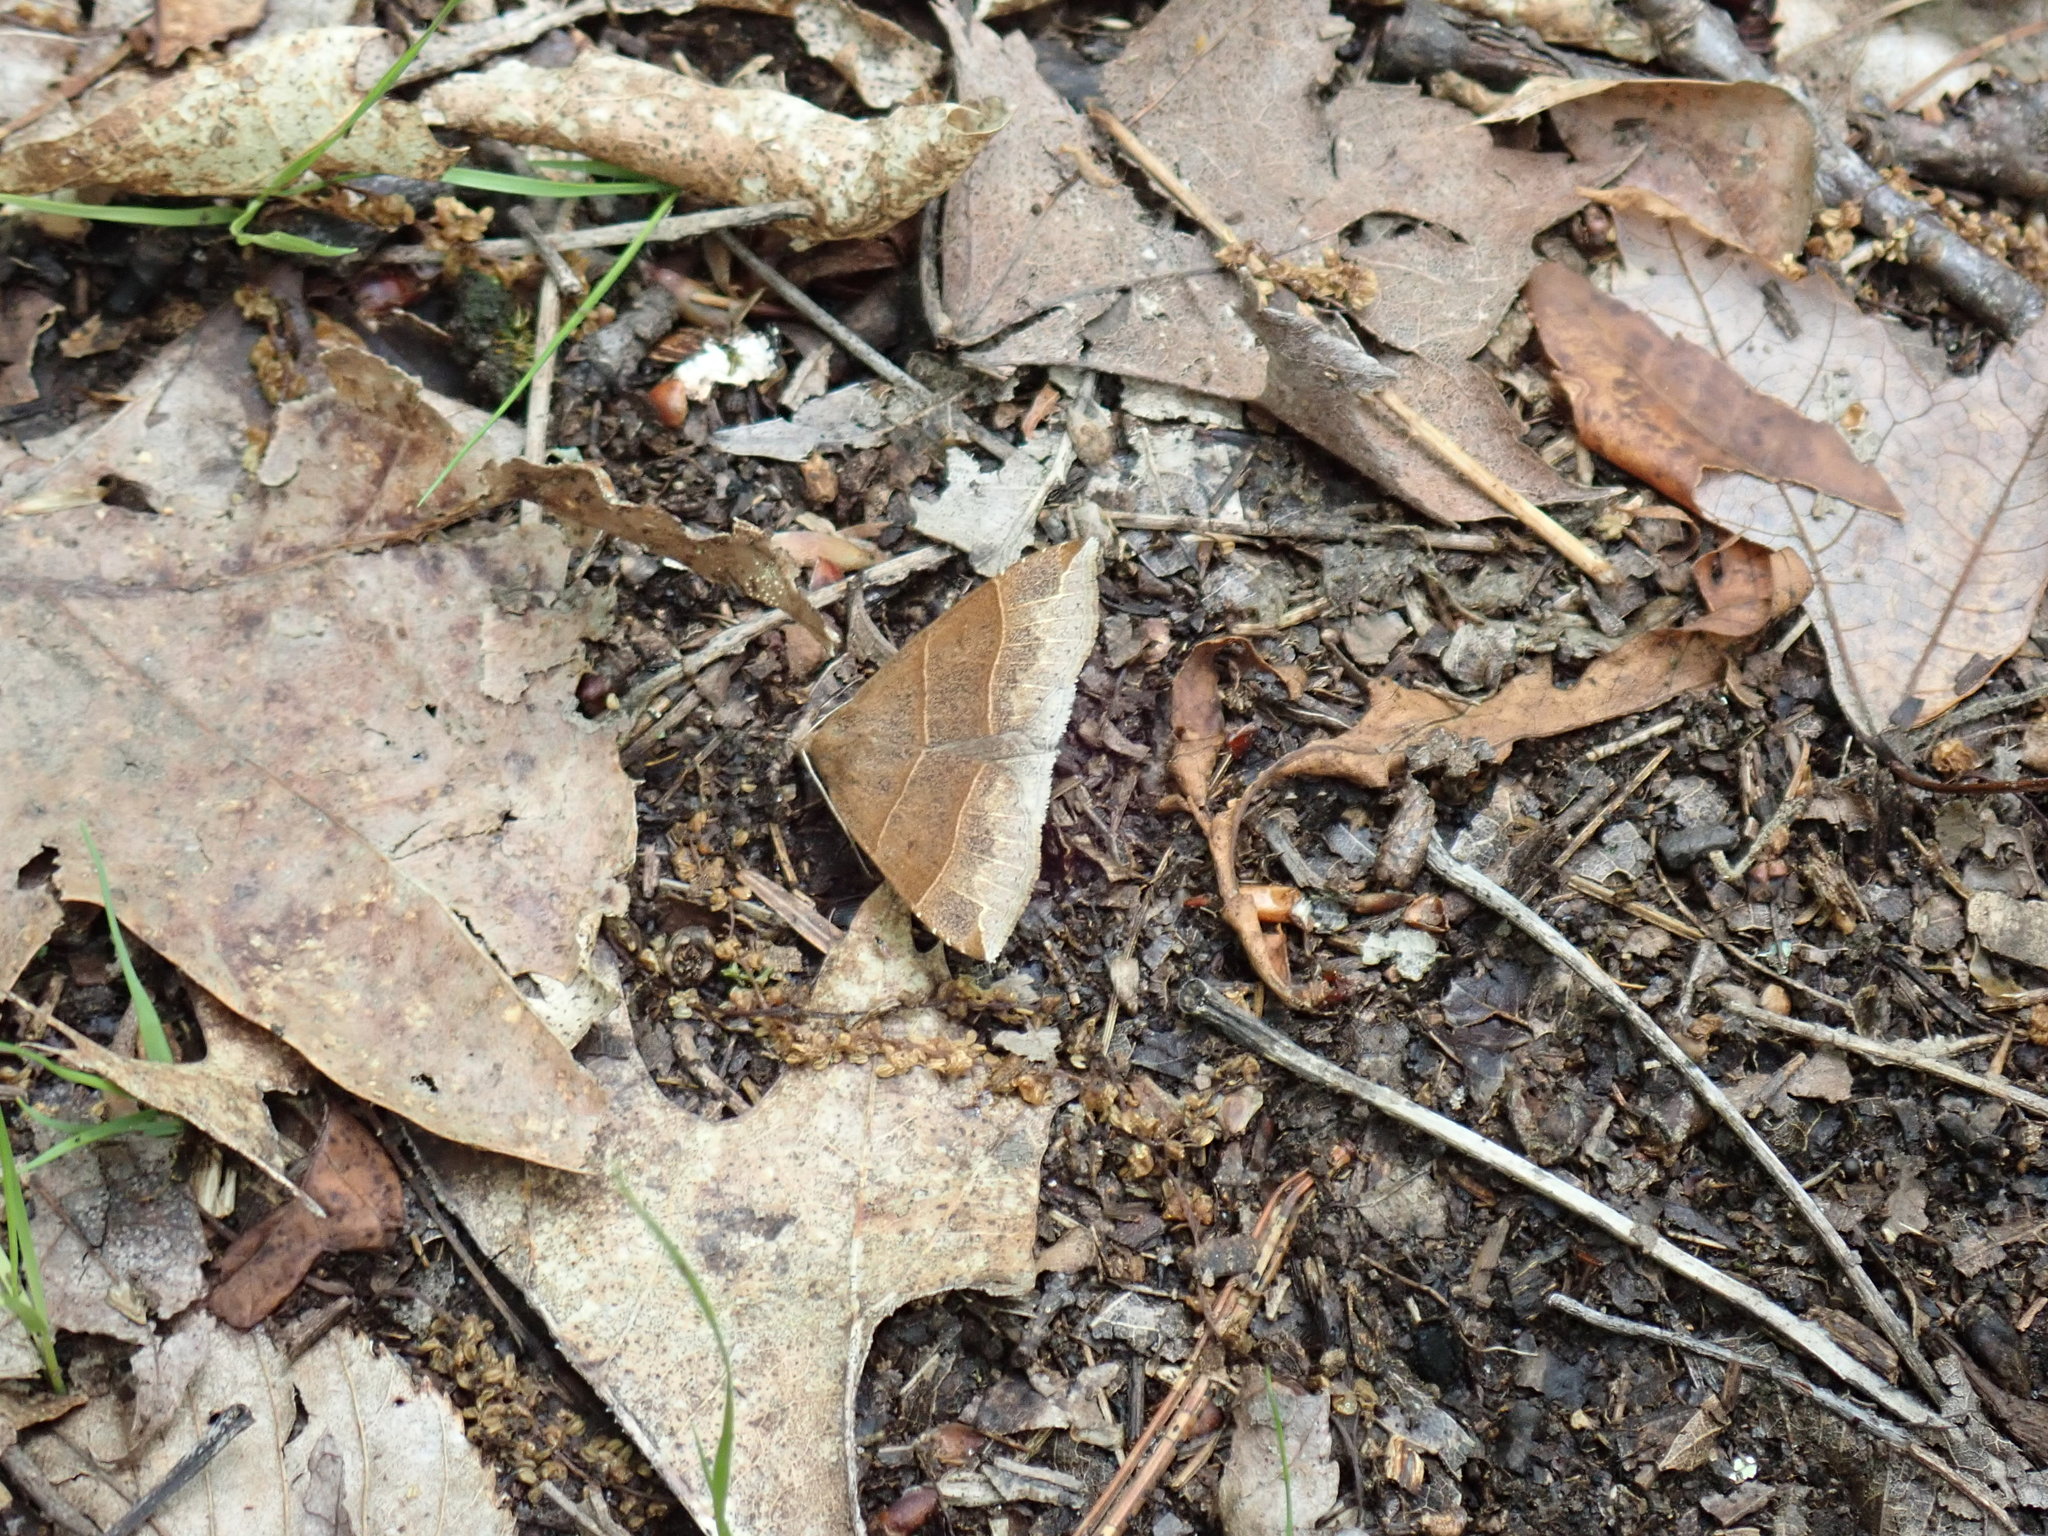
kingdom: Animalia
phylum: Arthropoda
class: Insecta
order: Lepidoptera
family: Erebidae
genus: Parallelia
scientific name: Parallelia bistriaris
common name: Maple looper moth
